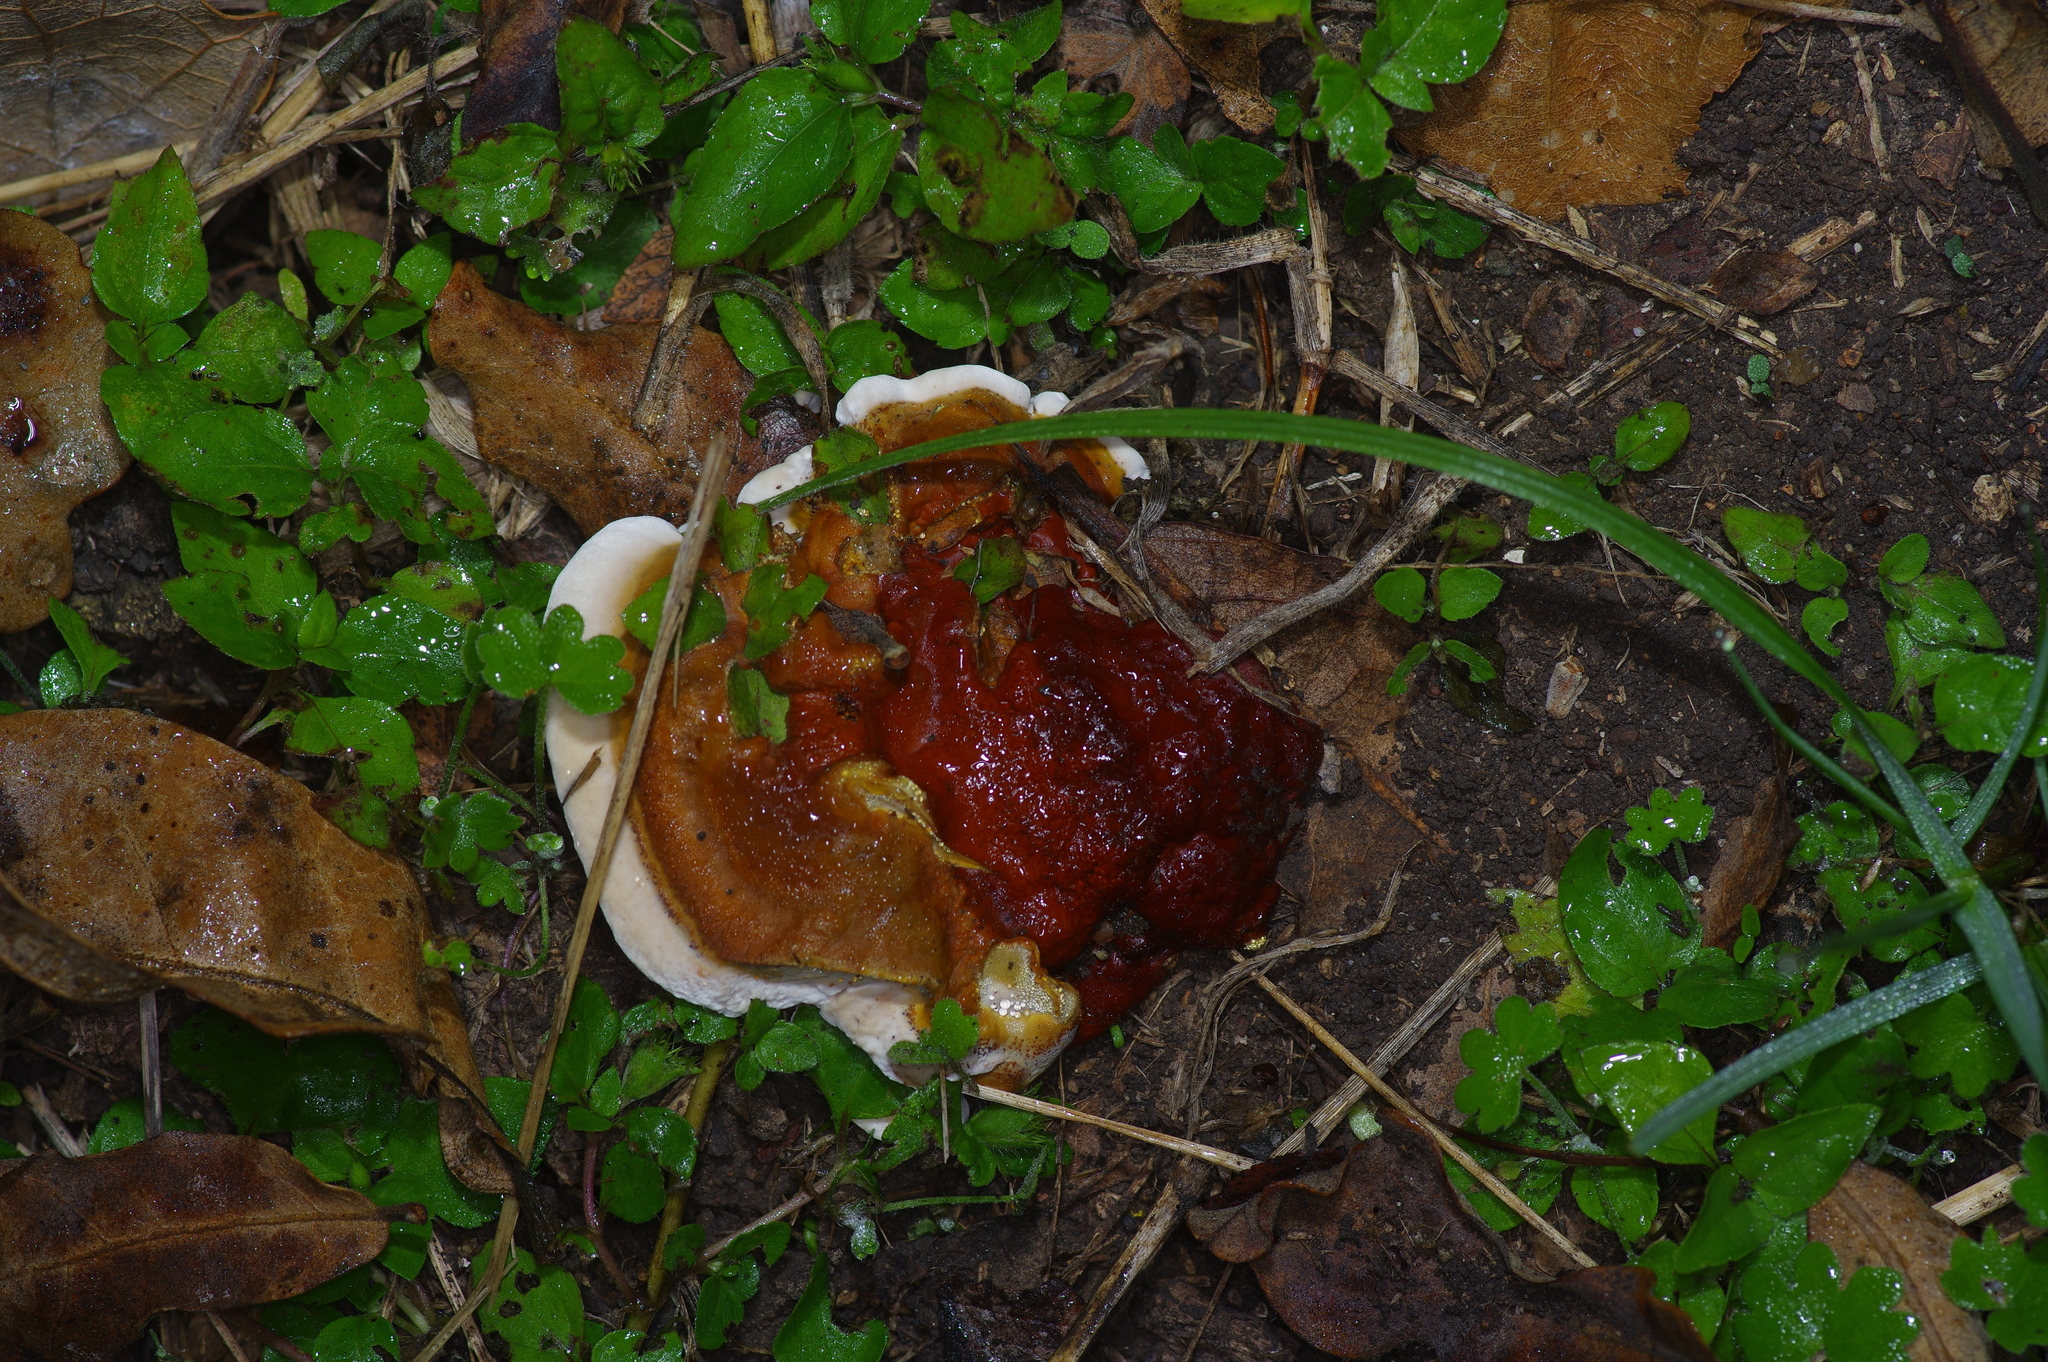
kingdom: Fungi
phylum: Basidiomycota
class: Agaricomycetes
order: Polyporales
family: Polyporaceae
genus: Ganoderma
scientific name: Ganoderma resinaceum
